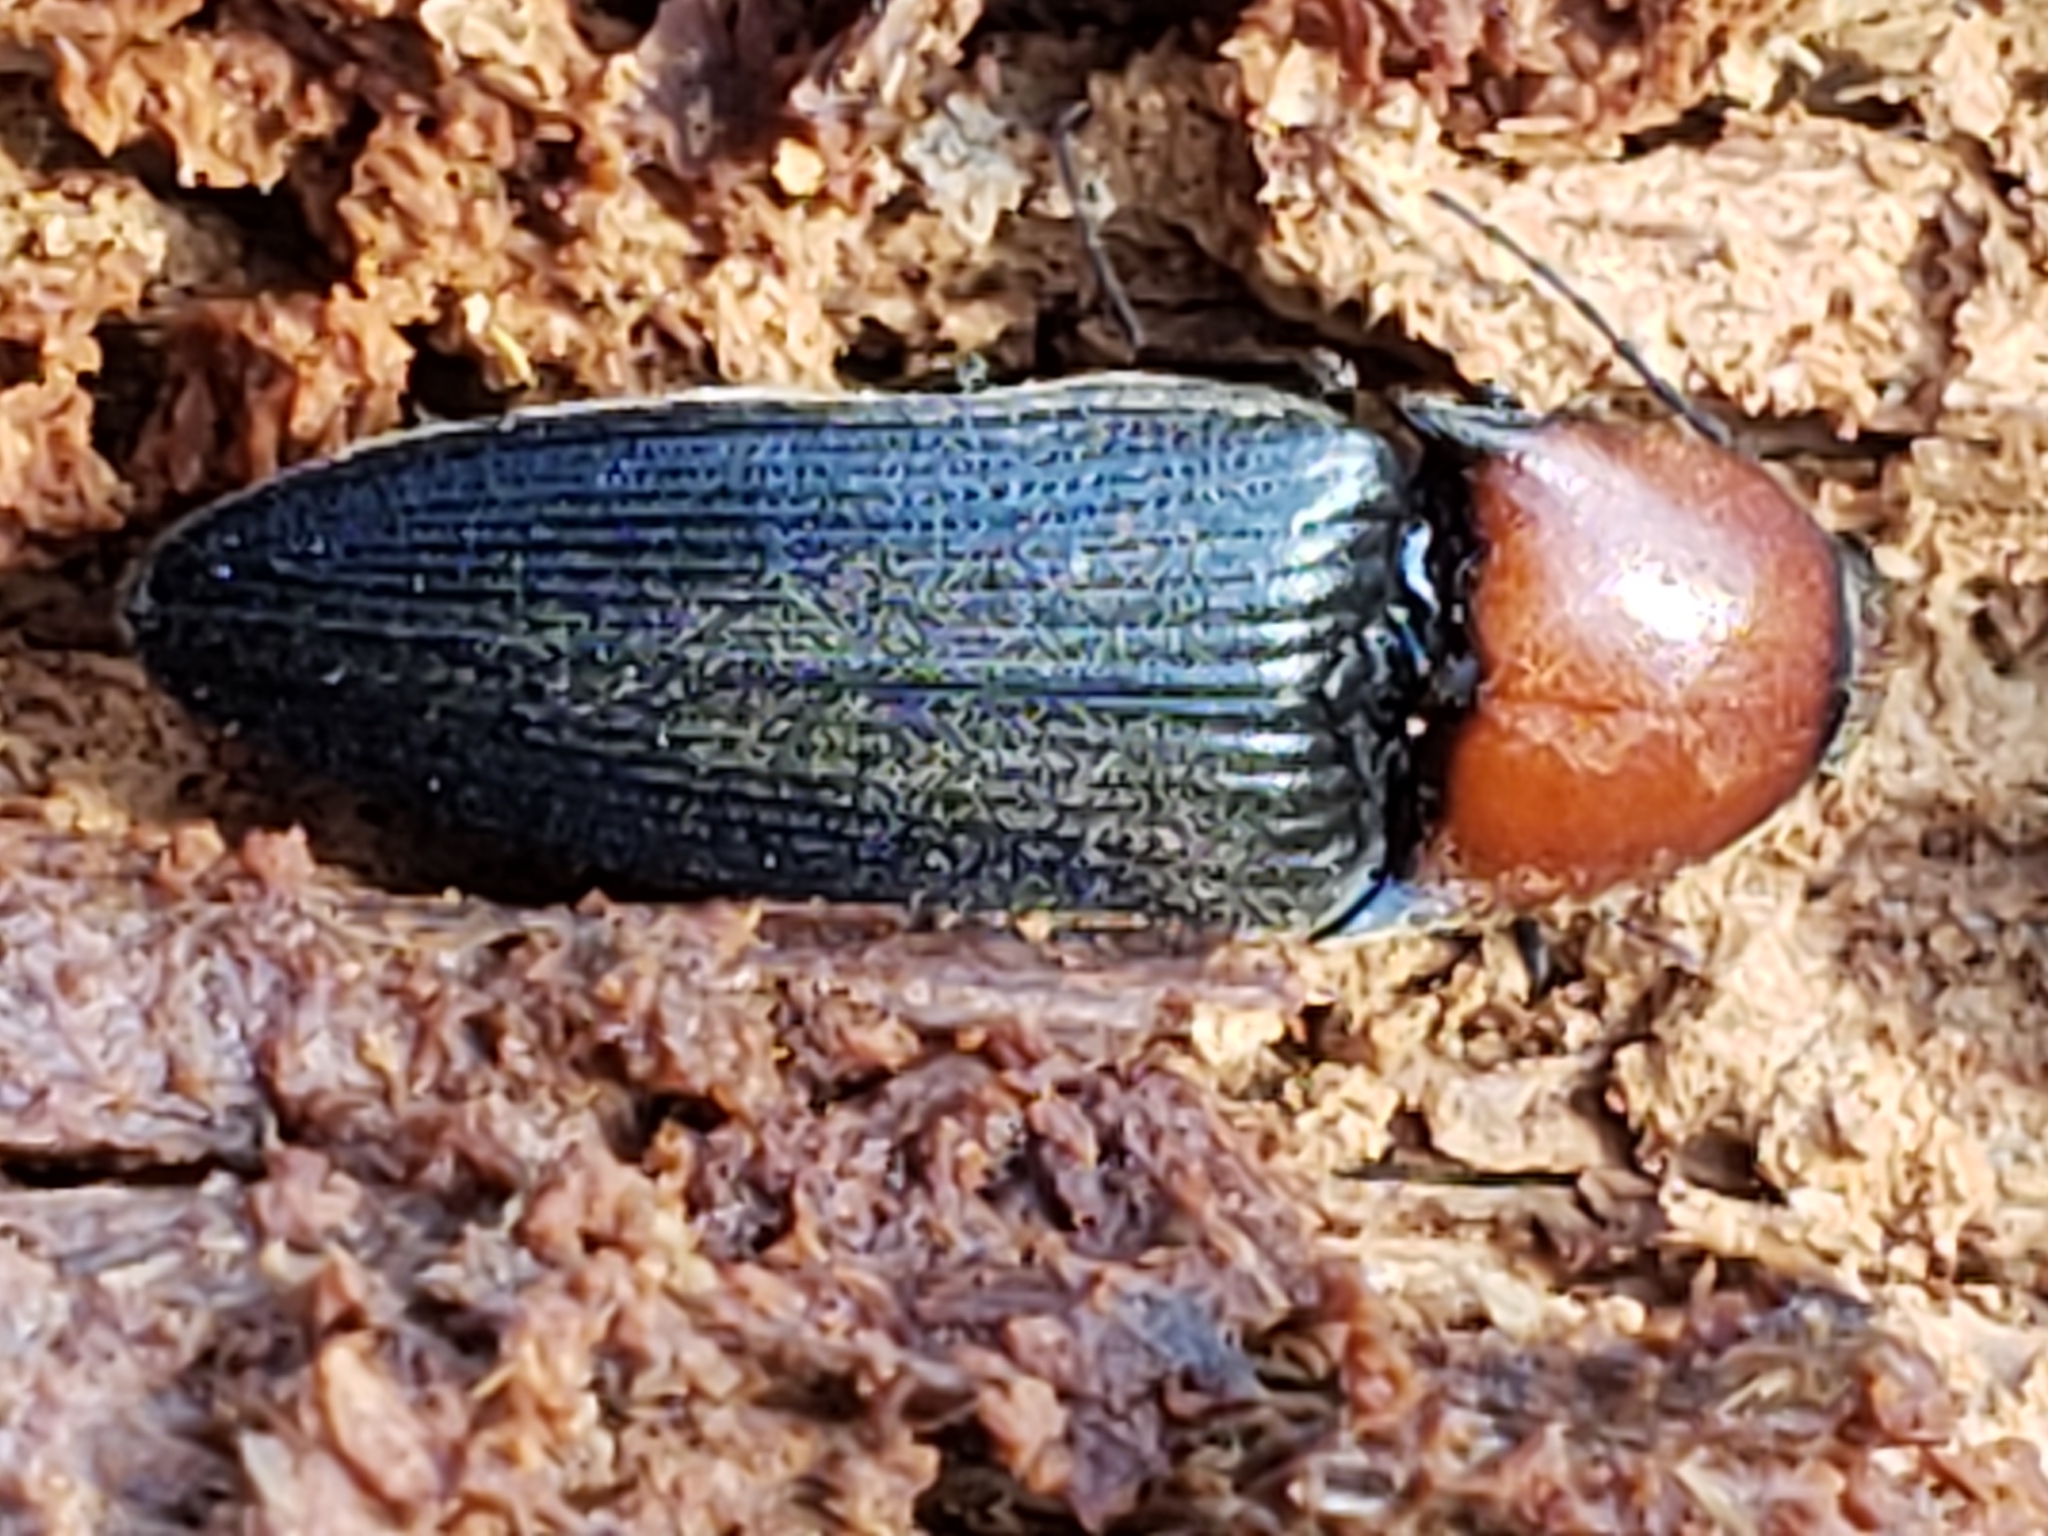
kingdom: Animalia
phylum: Arthropoda
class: Insecta
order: Coleoptera
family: Elateridae
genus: Ampedus
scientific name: Ampedus rubricollis
